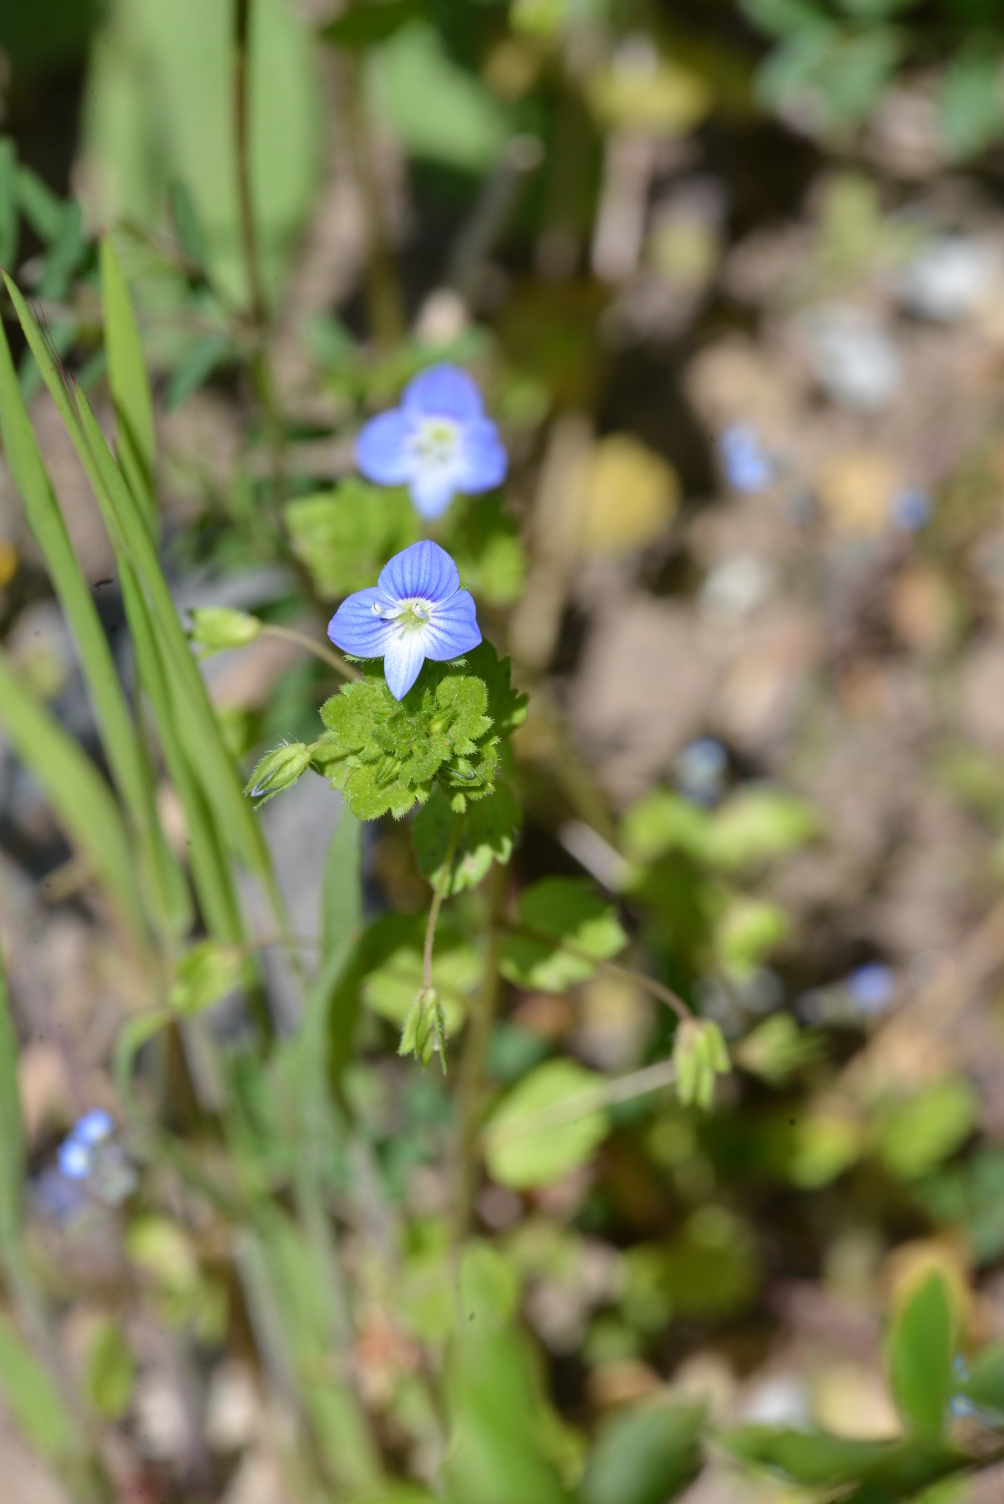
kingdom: Plantae
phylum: Tracheophyta
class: Magnoliopsida
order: Lamiales
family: Plantaginaceae
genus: Veronica
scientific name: Veronica persica
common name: Common field-speedwell
